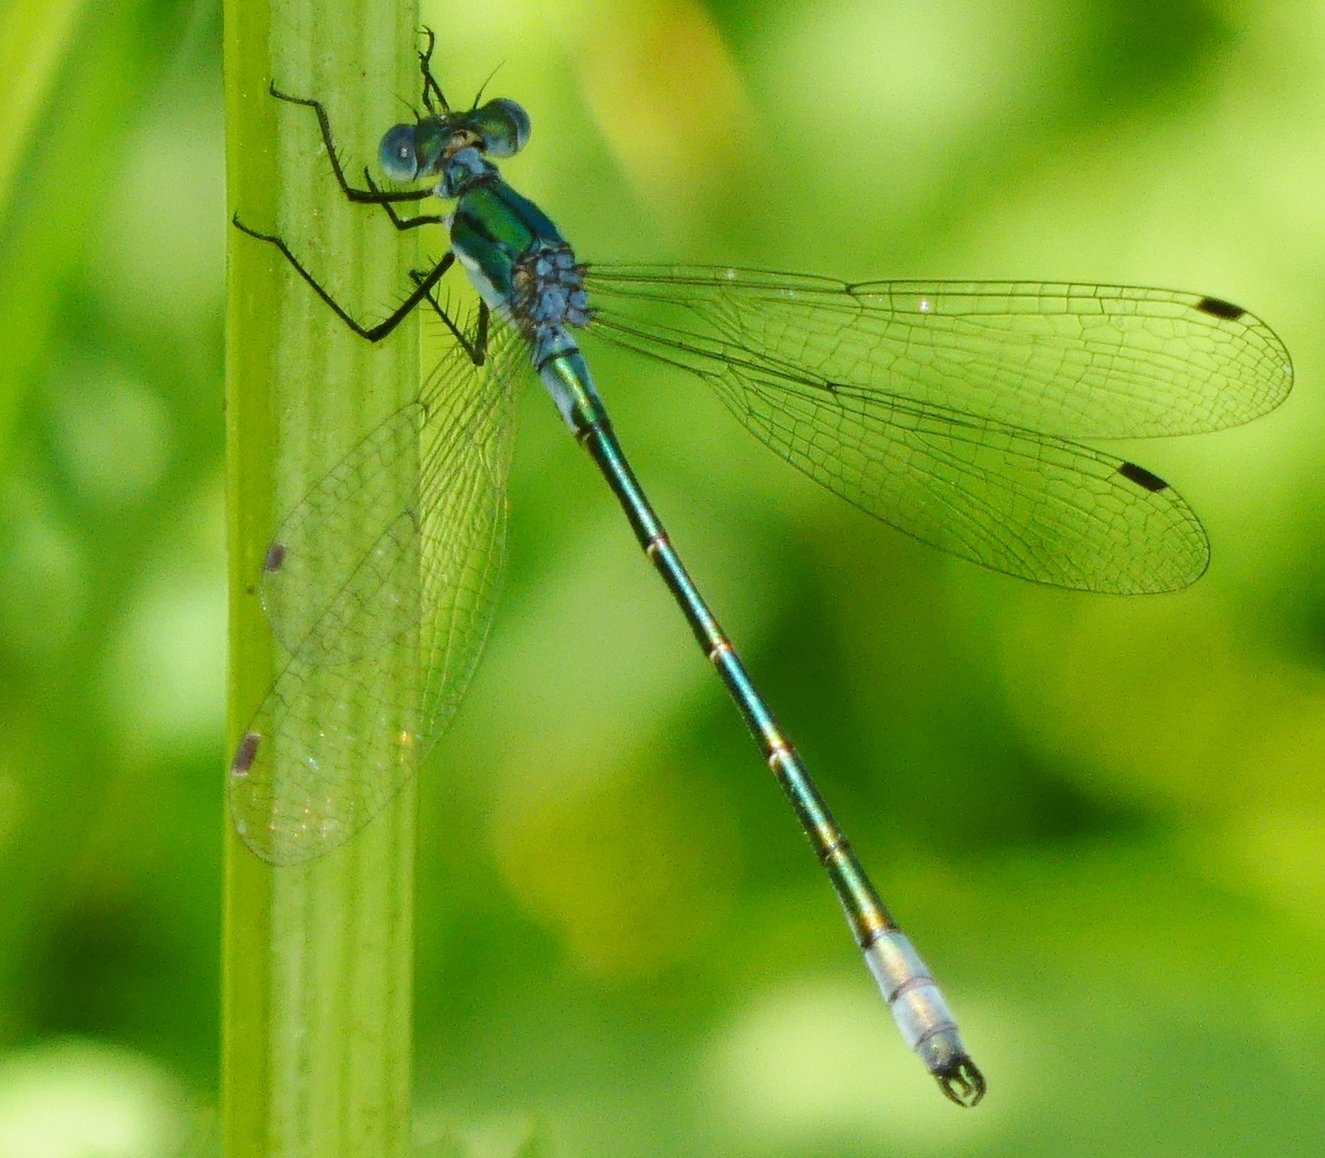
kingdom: Animalia
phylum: Arthropoda
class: Insecta
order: Odonata
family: Lestidae
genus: Lestes
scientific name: Lestes dryas
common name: Scarce emerald damselfly
